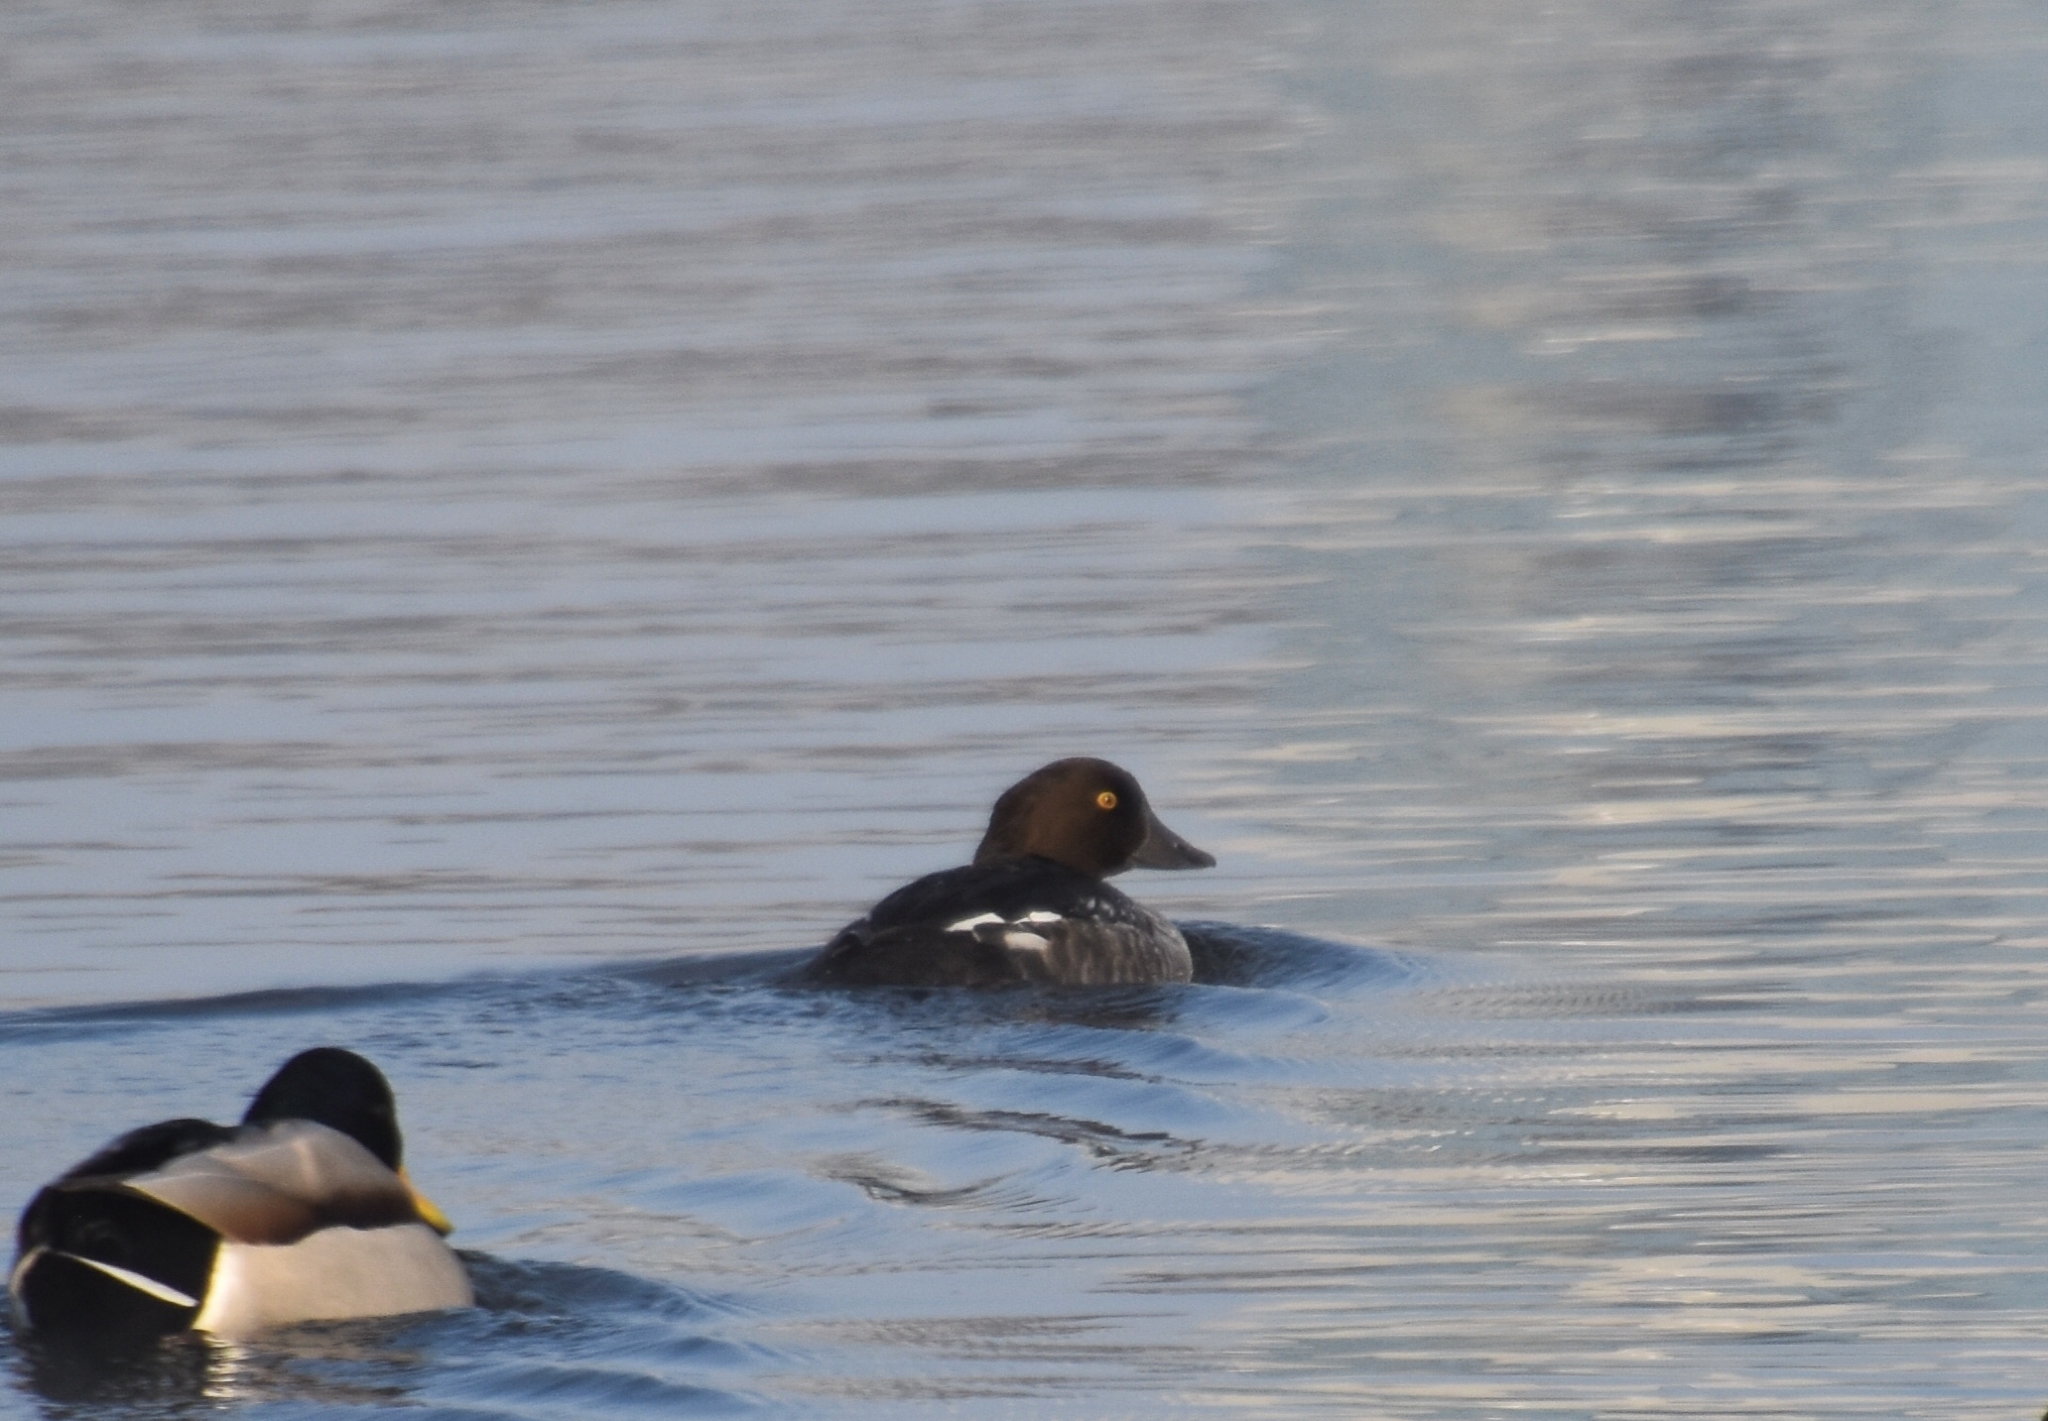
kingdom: Animalia
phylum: Chordata
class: Aves
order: Anseriformes
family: Anatidae
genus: Bucephala
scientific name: Bucephala clangula
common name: Common goldeneye
